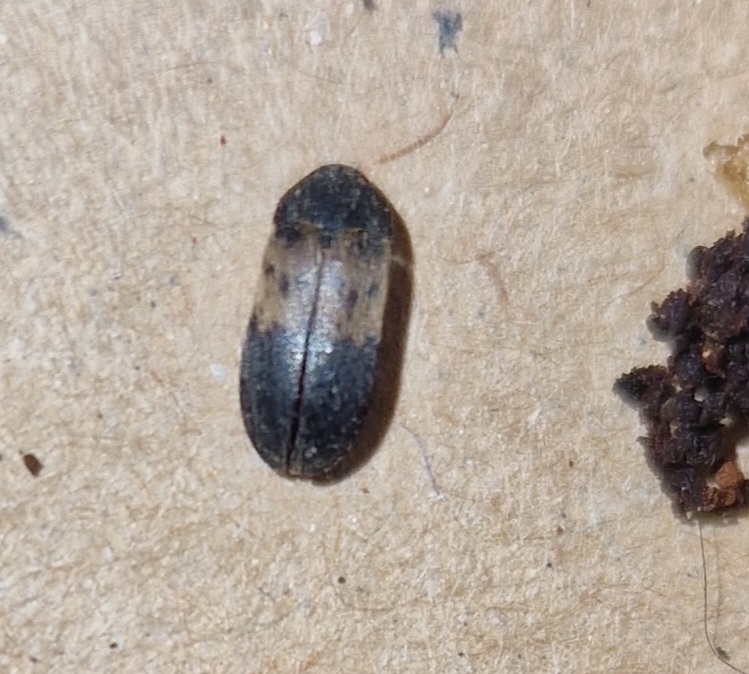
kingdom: Animalia
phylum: Arthropoda
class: Insecta
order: Coleoptera
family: Dermestidae
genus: Dermestes
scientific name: Dermestes lardarius
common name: Larder beetle
